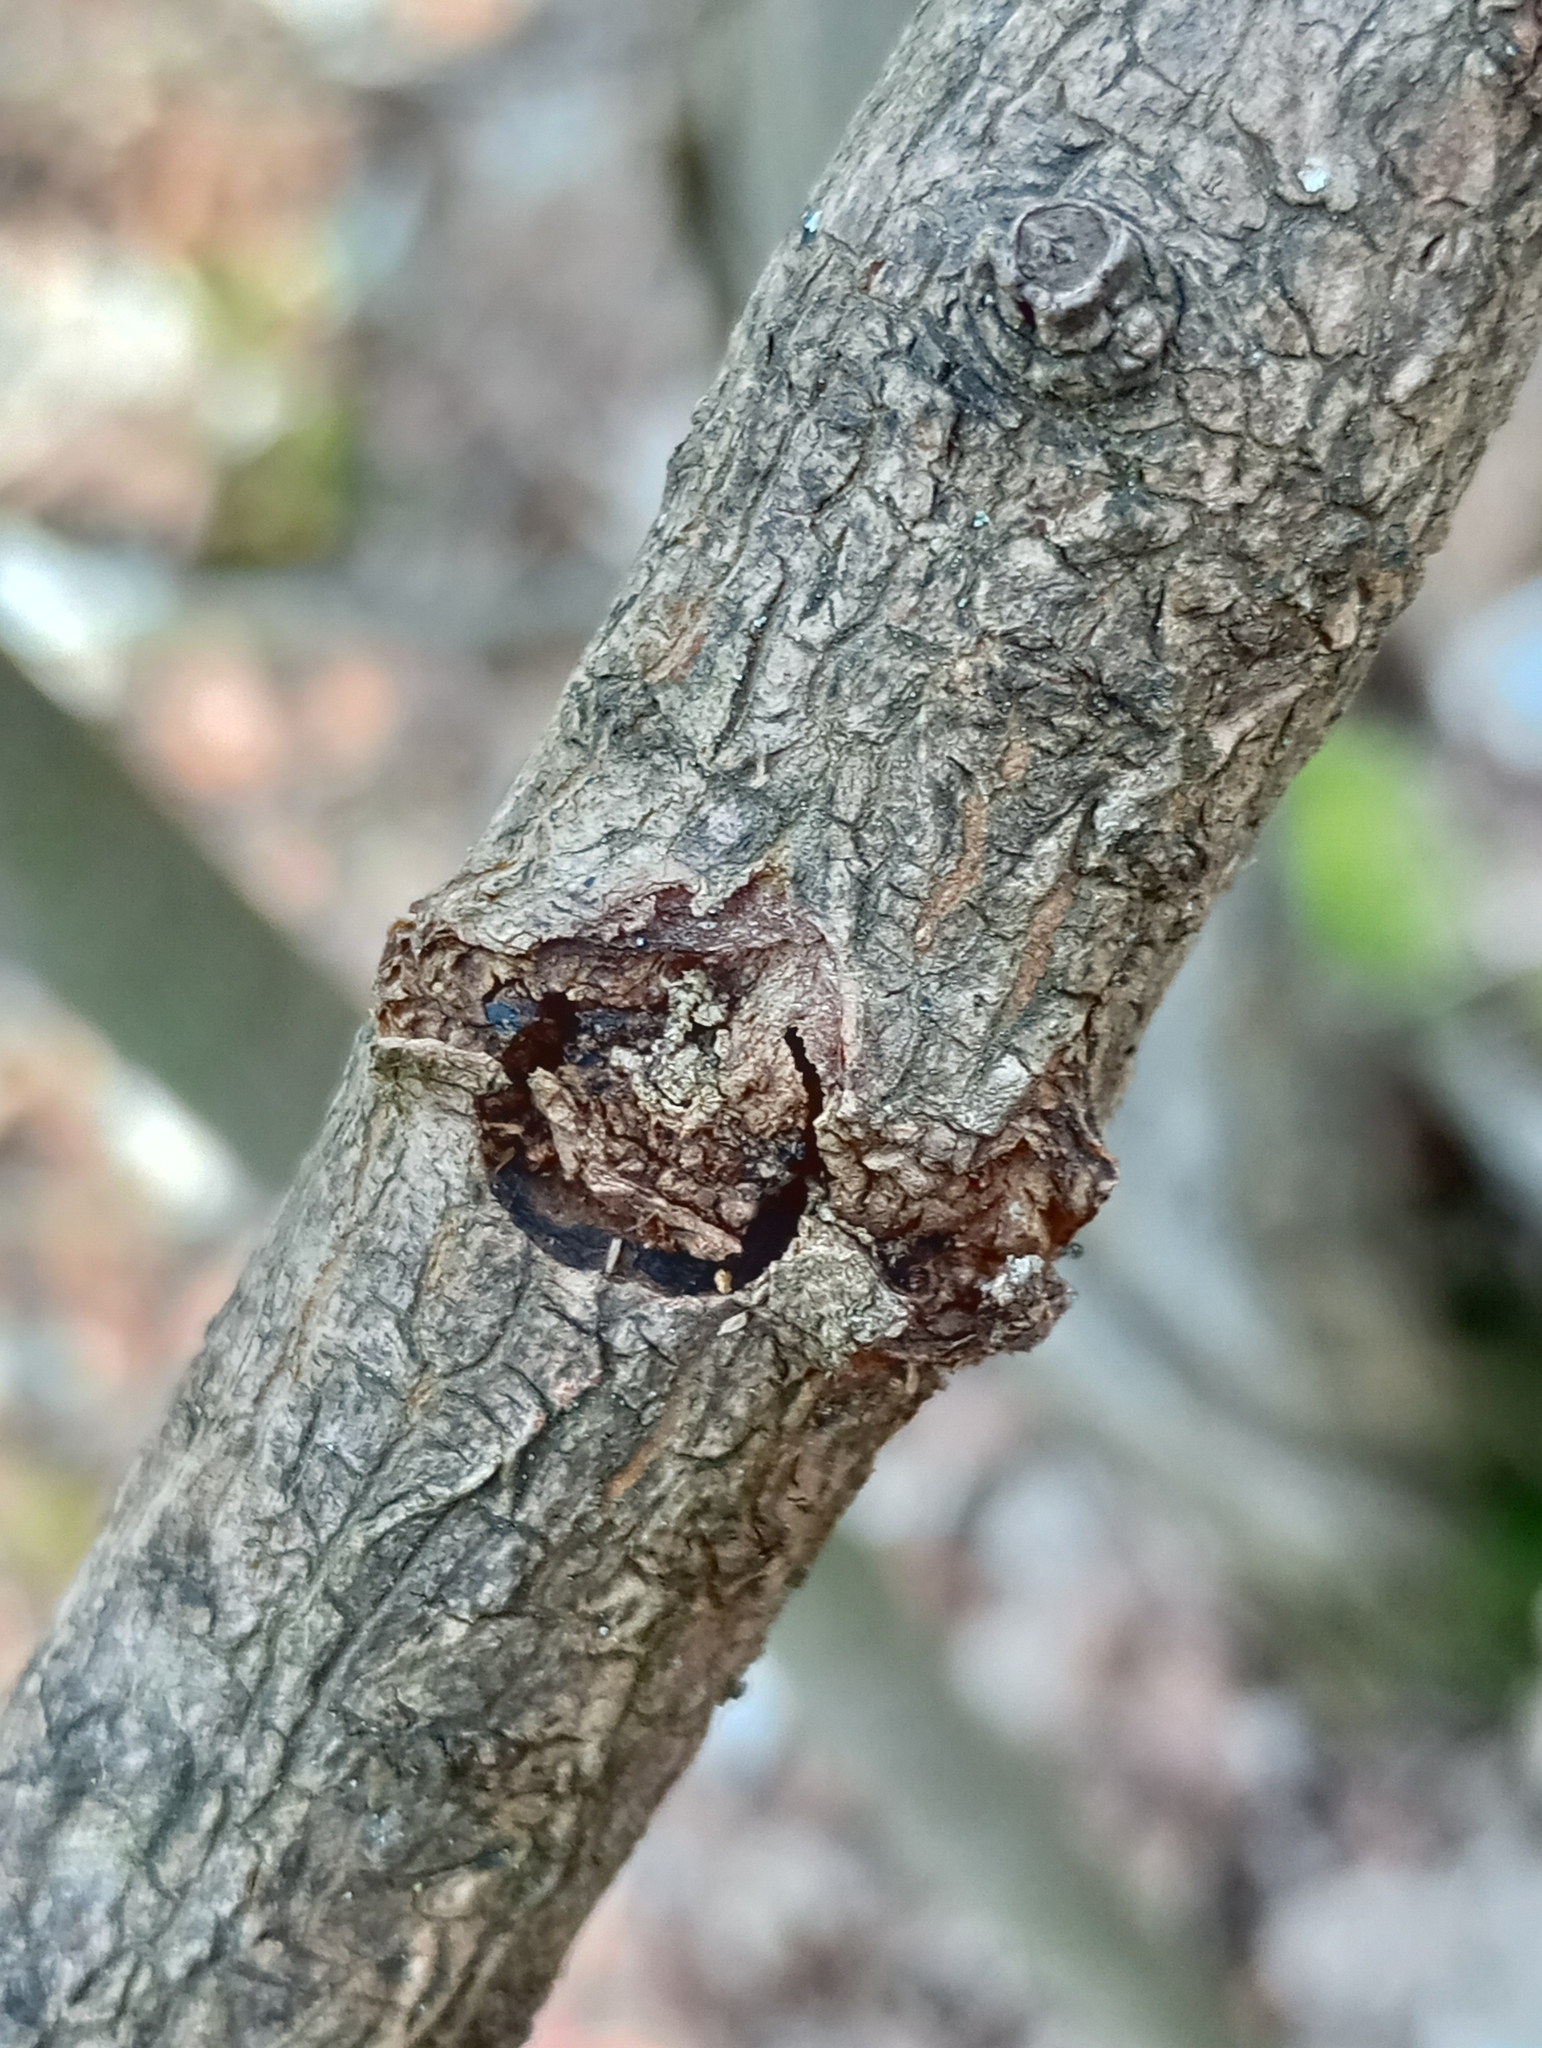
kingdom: Animalia
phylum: Arthropoda
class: Insecta
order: Lepidoptera
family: Sesiidae
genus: Synanthedon
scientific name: Synanthedon andrenaeformis
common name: Orange-tailed clearwing
